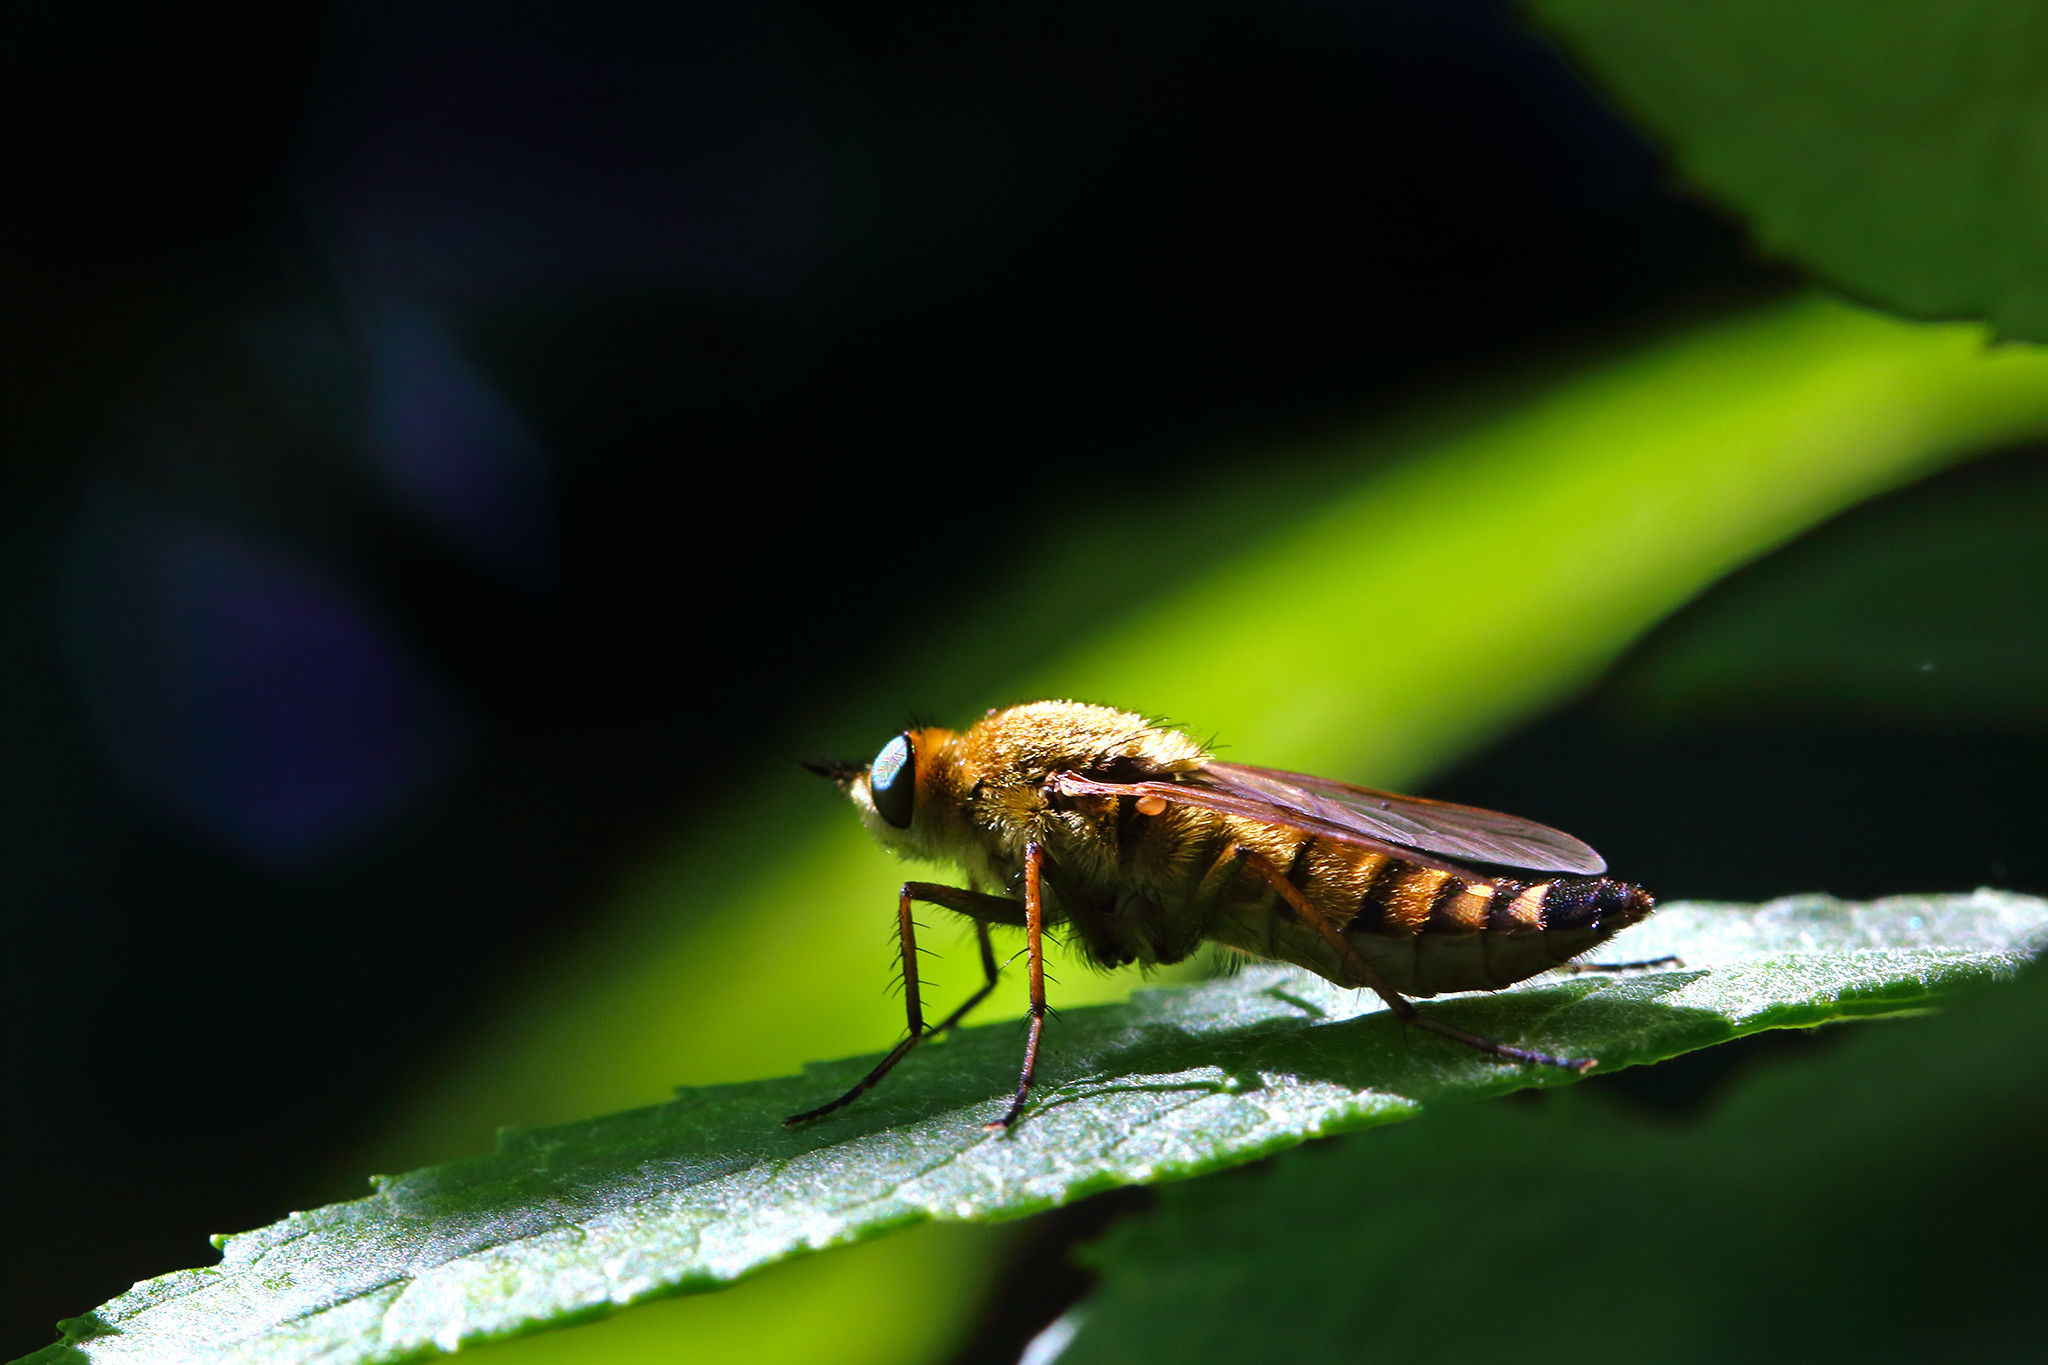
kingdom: Animalia
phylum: Arthropoda
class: Insecta
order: Diptera
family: Therevidae
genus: Thereva
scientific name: Thereva nobilitata
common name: Common stiletto
